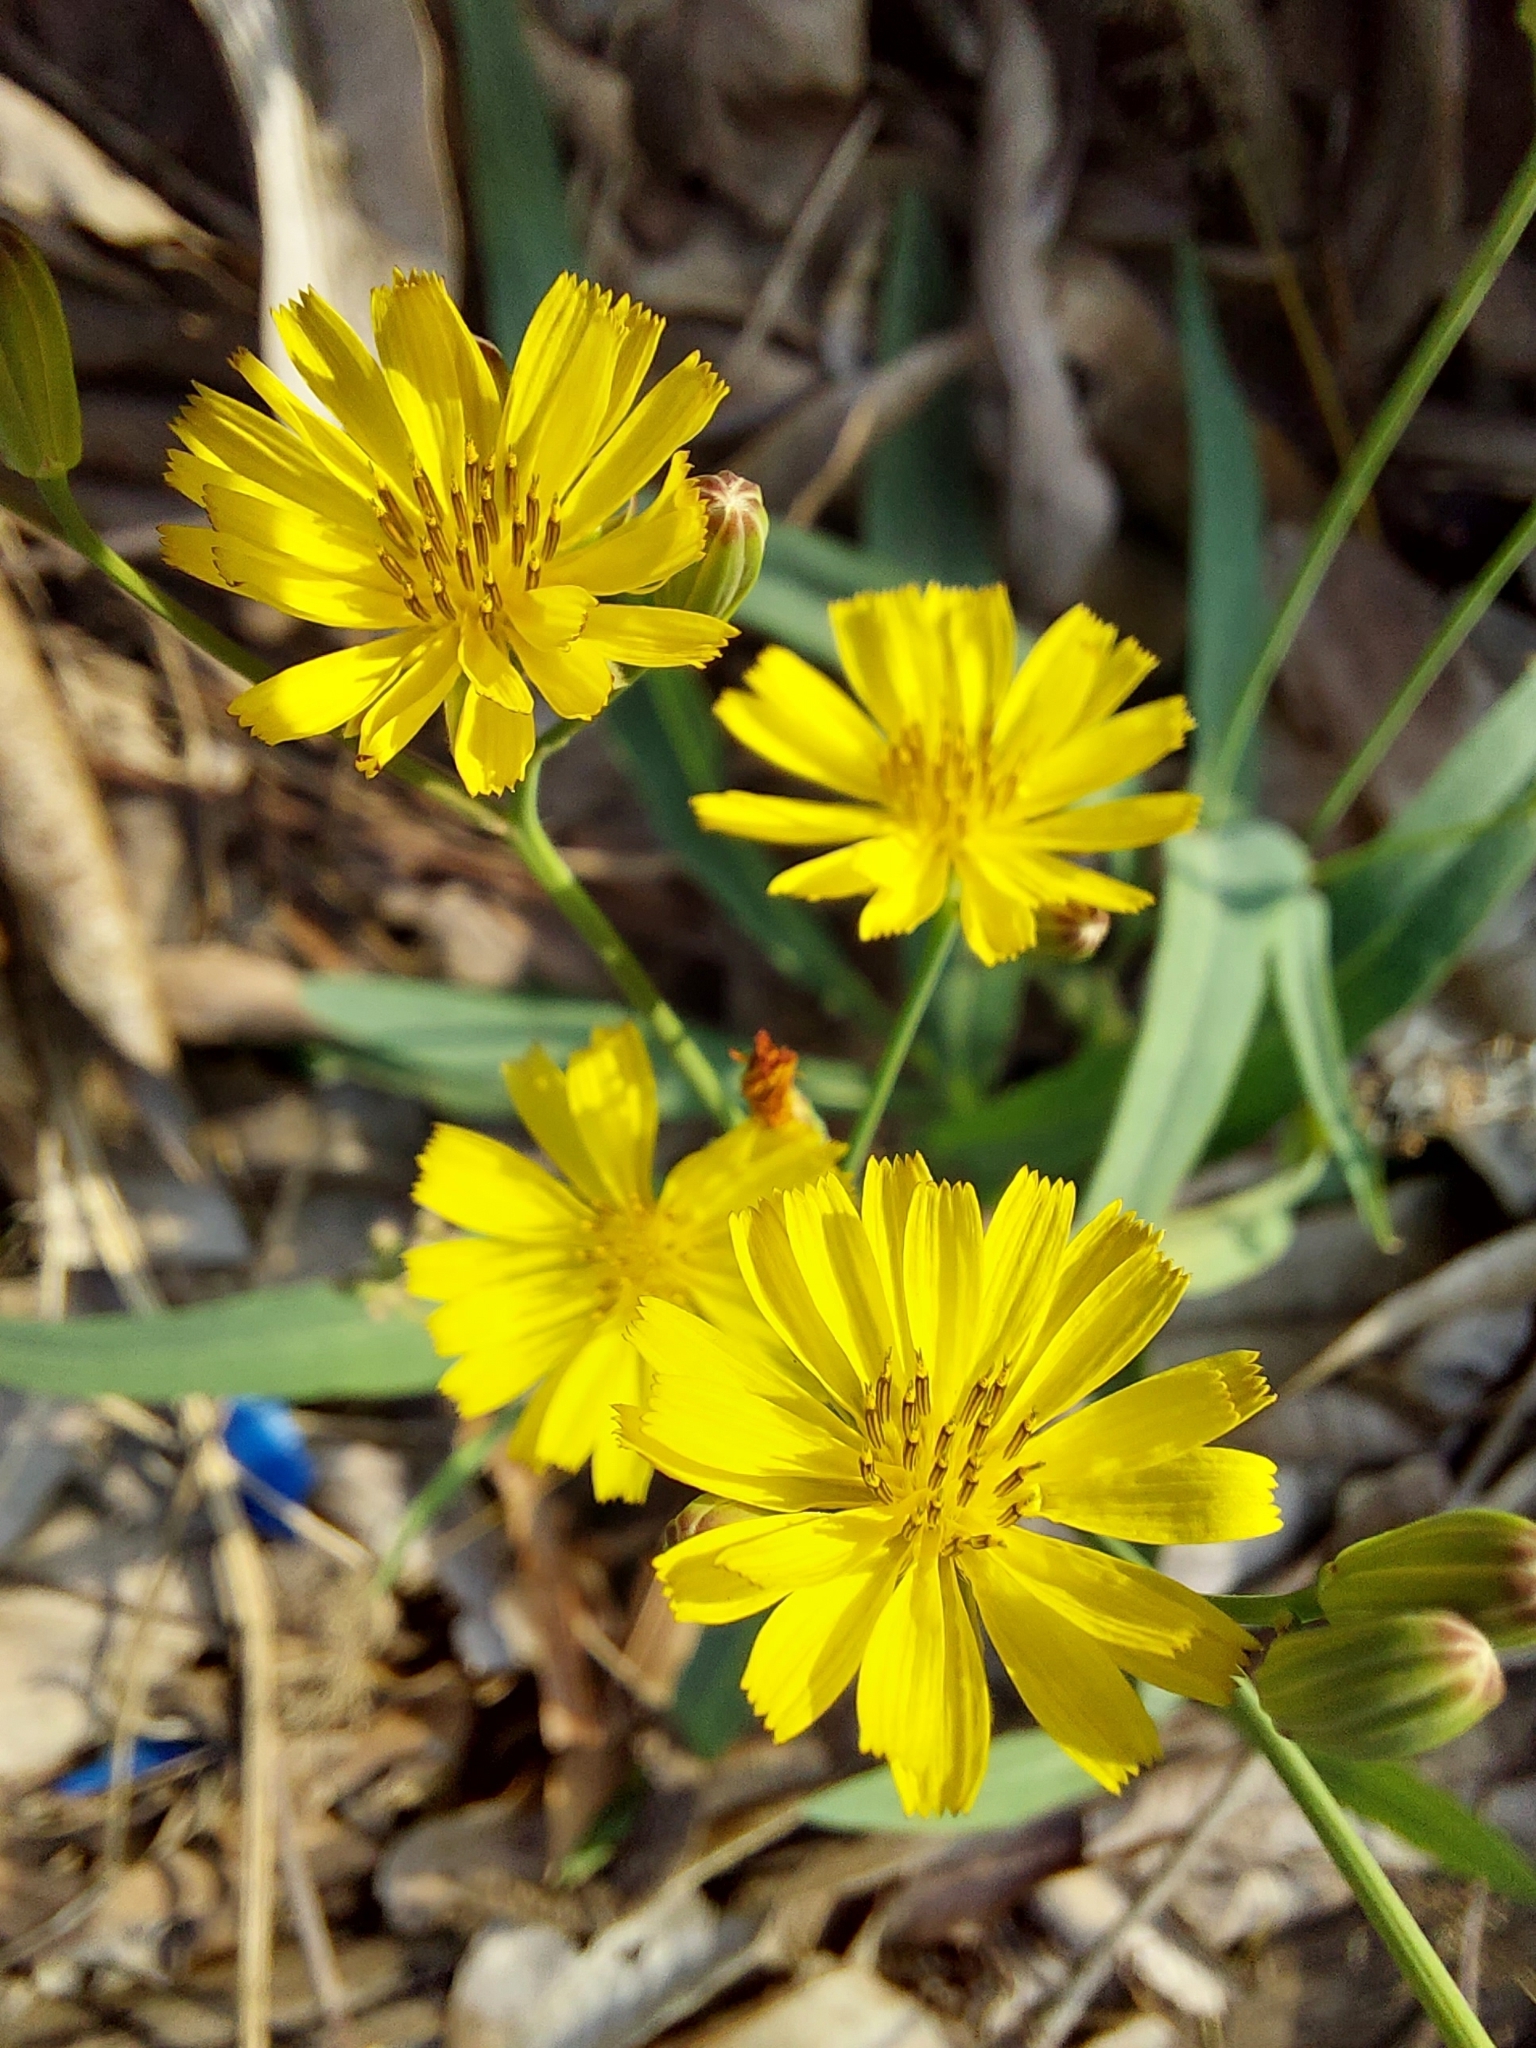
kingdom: Plantae
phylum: Tracheophyta
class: Magnoliopsida
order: Asterales
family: Asteraceae
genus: Ixeris
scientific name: Ixeris chinensis
